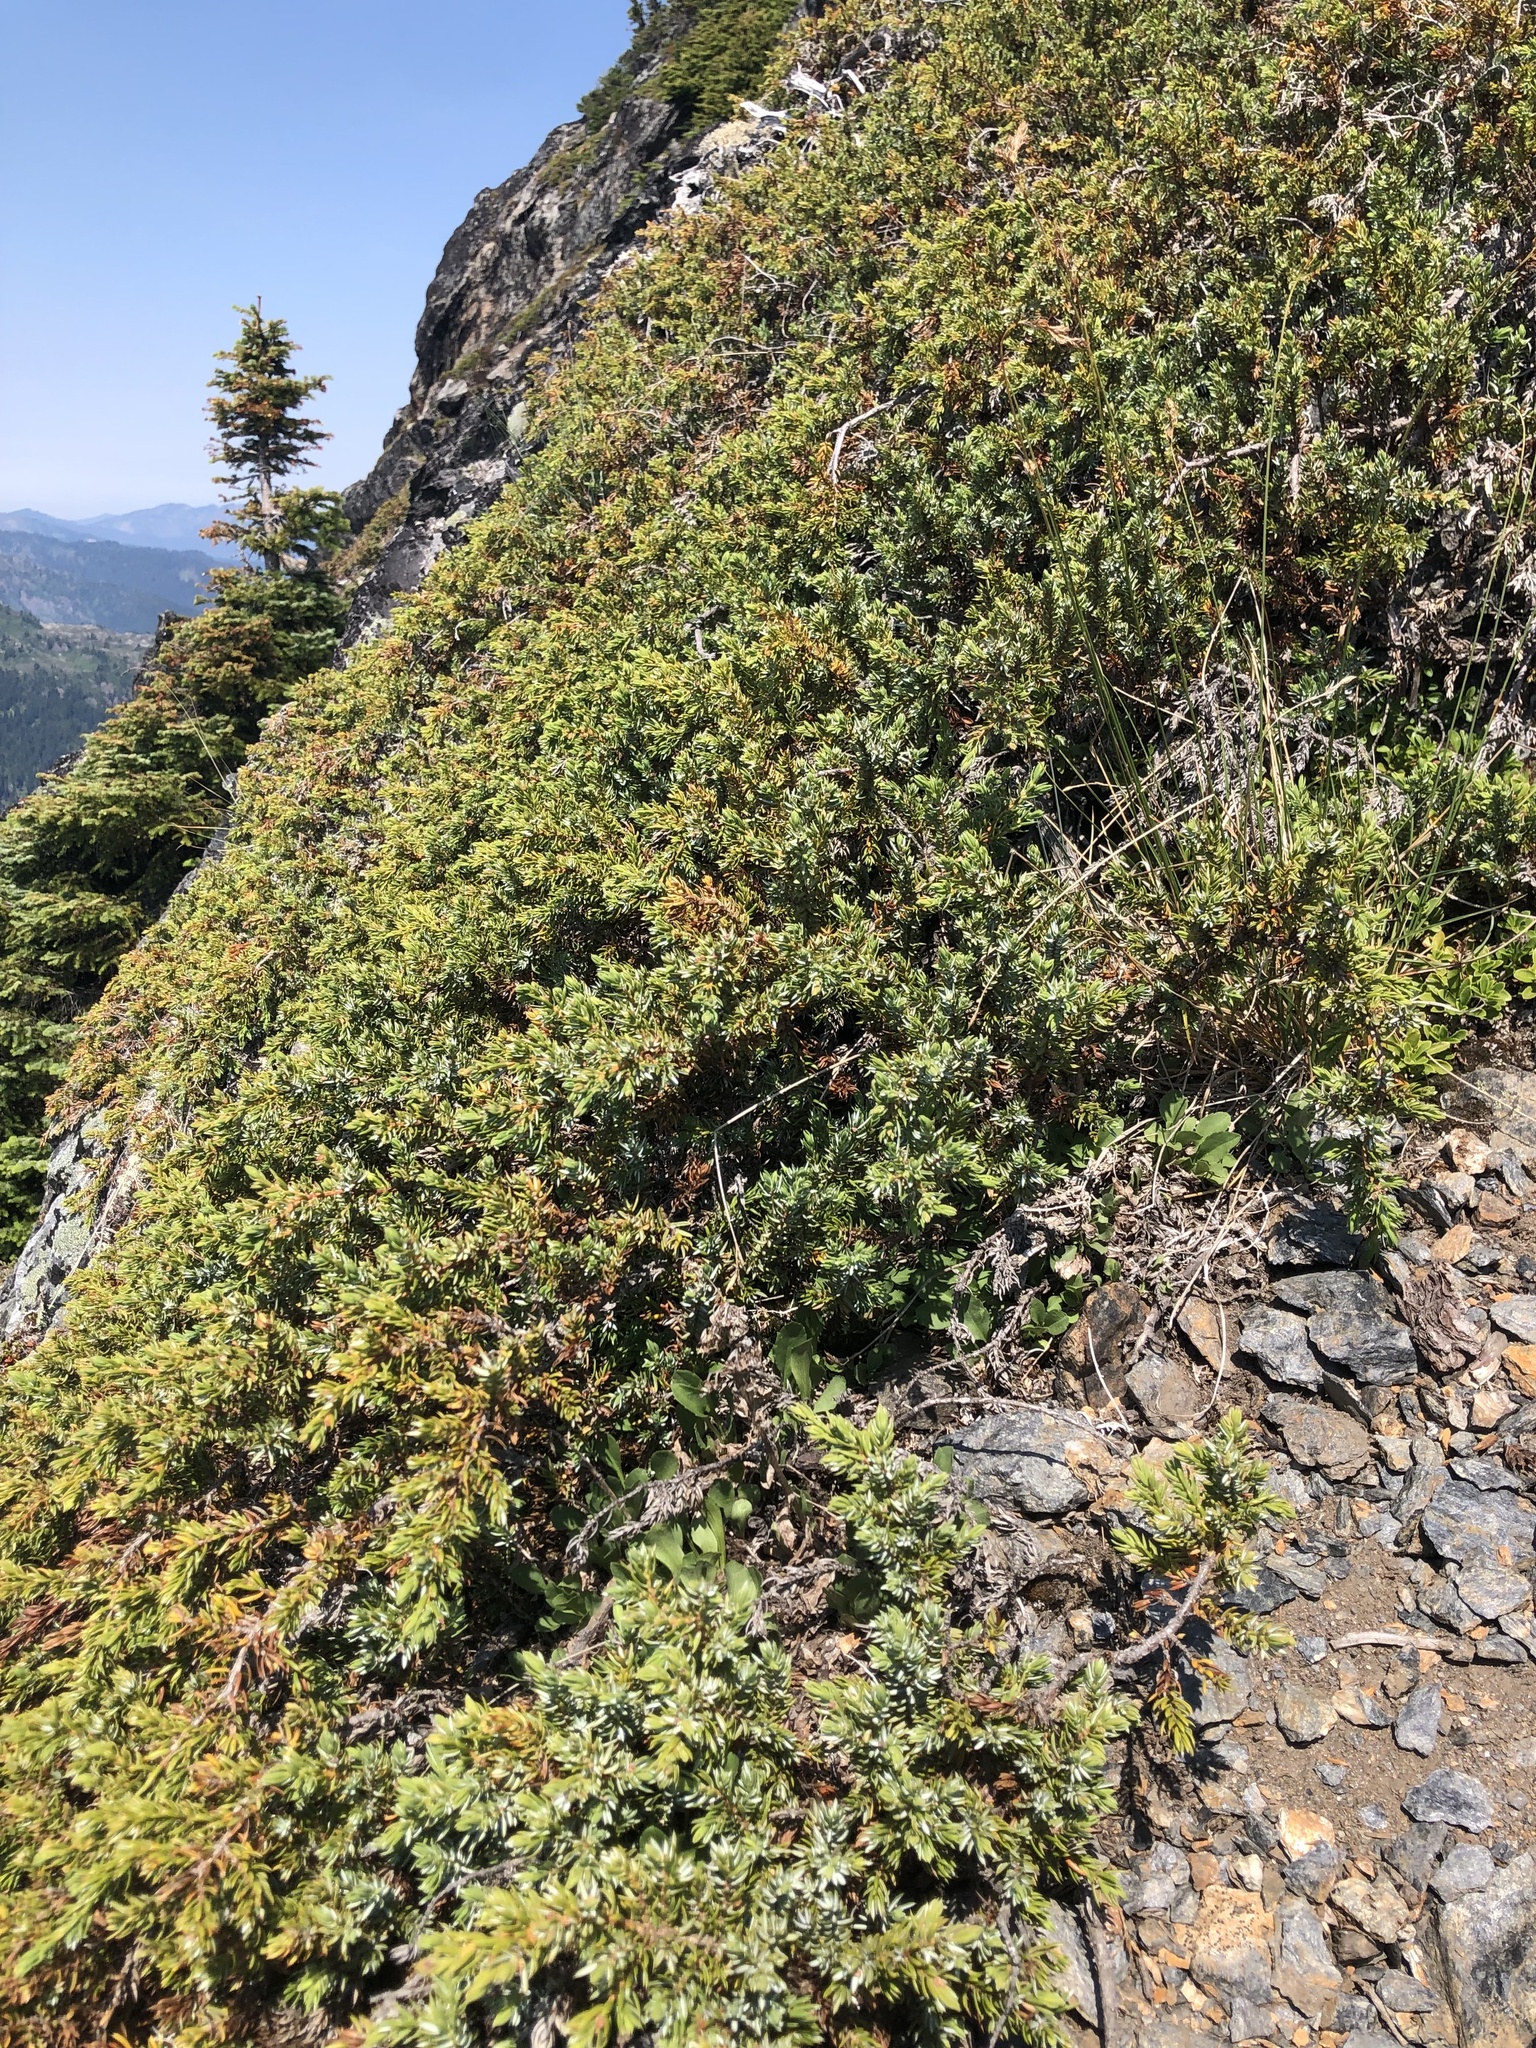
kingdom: Plantae
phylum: Tracheophyta
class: Pinopsida
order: Pinales
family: Cupressaceae
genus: Juniperus
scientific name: Juniperus communis
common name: Common juniper
